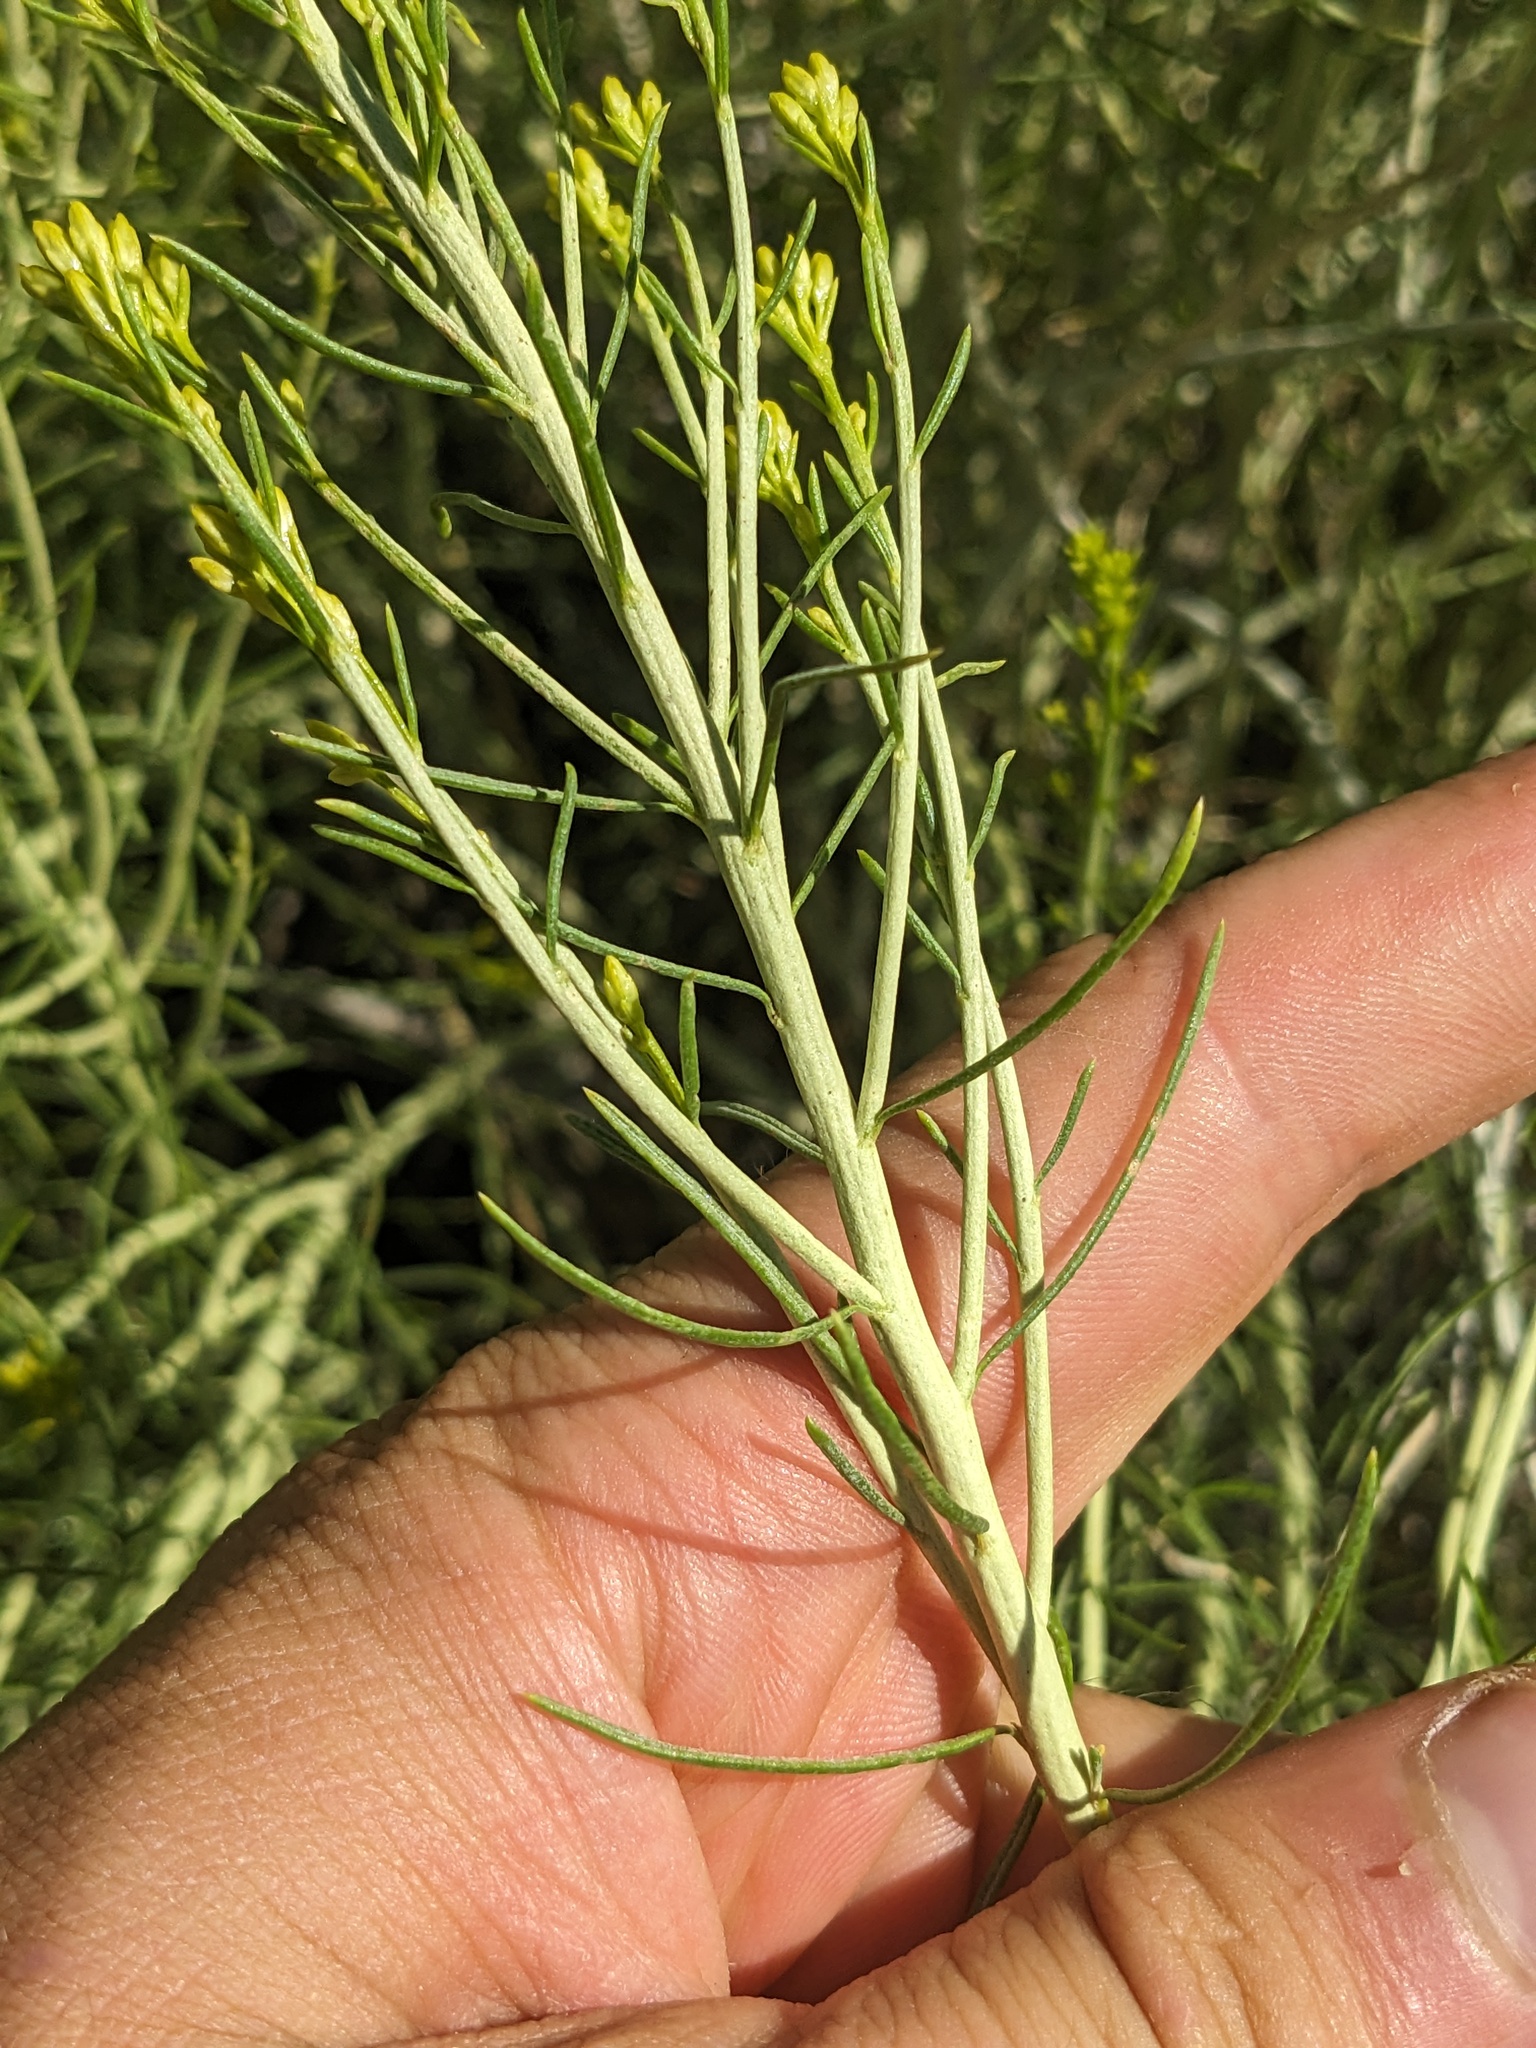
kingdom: Plantae
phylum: Tracheophyta
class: Magnoliopsida
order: Asterales
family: Asteraceae
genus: Ericameria
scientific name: Ericameria nauseosa
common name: Rubber rabbitbrush
